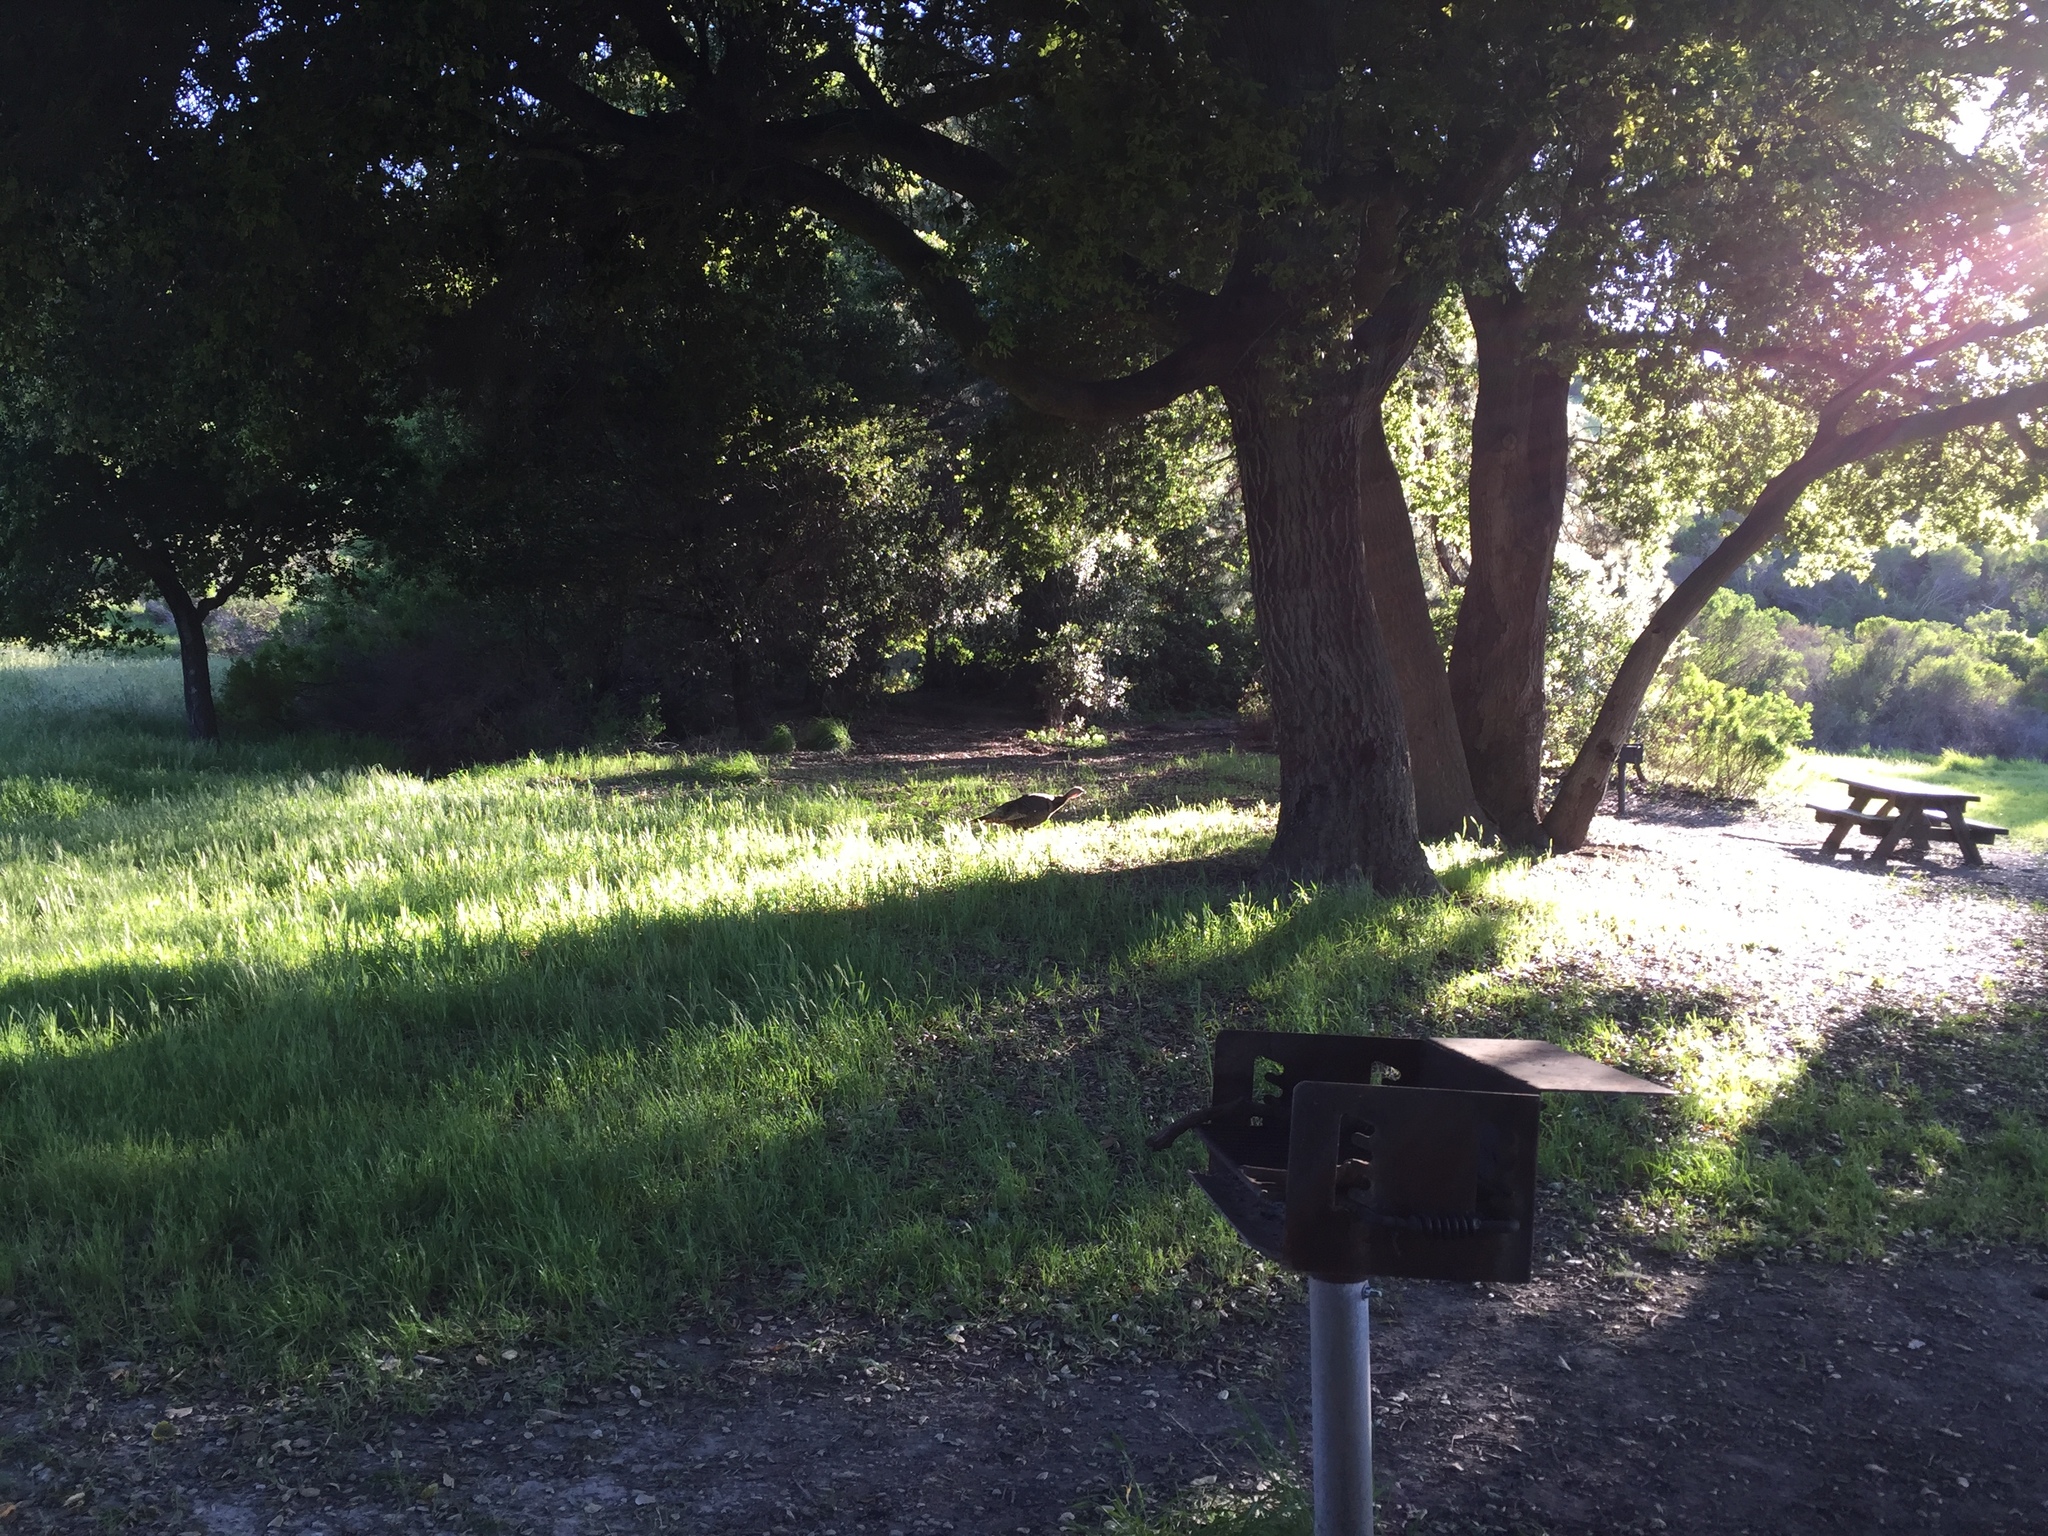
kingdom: Animalia
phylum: Chordata
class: Aves
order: Galliformes
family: Phasianidae
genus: Meleagris
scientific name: Meleagris gallopavo
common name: Wild turkey
